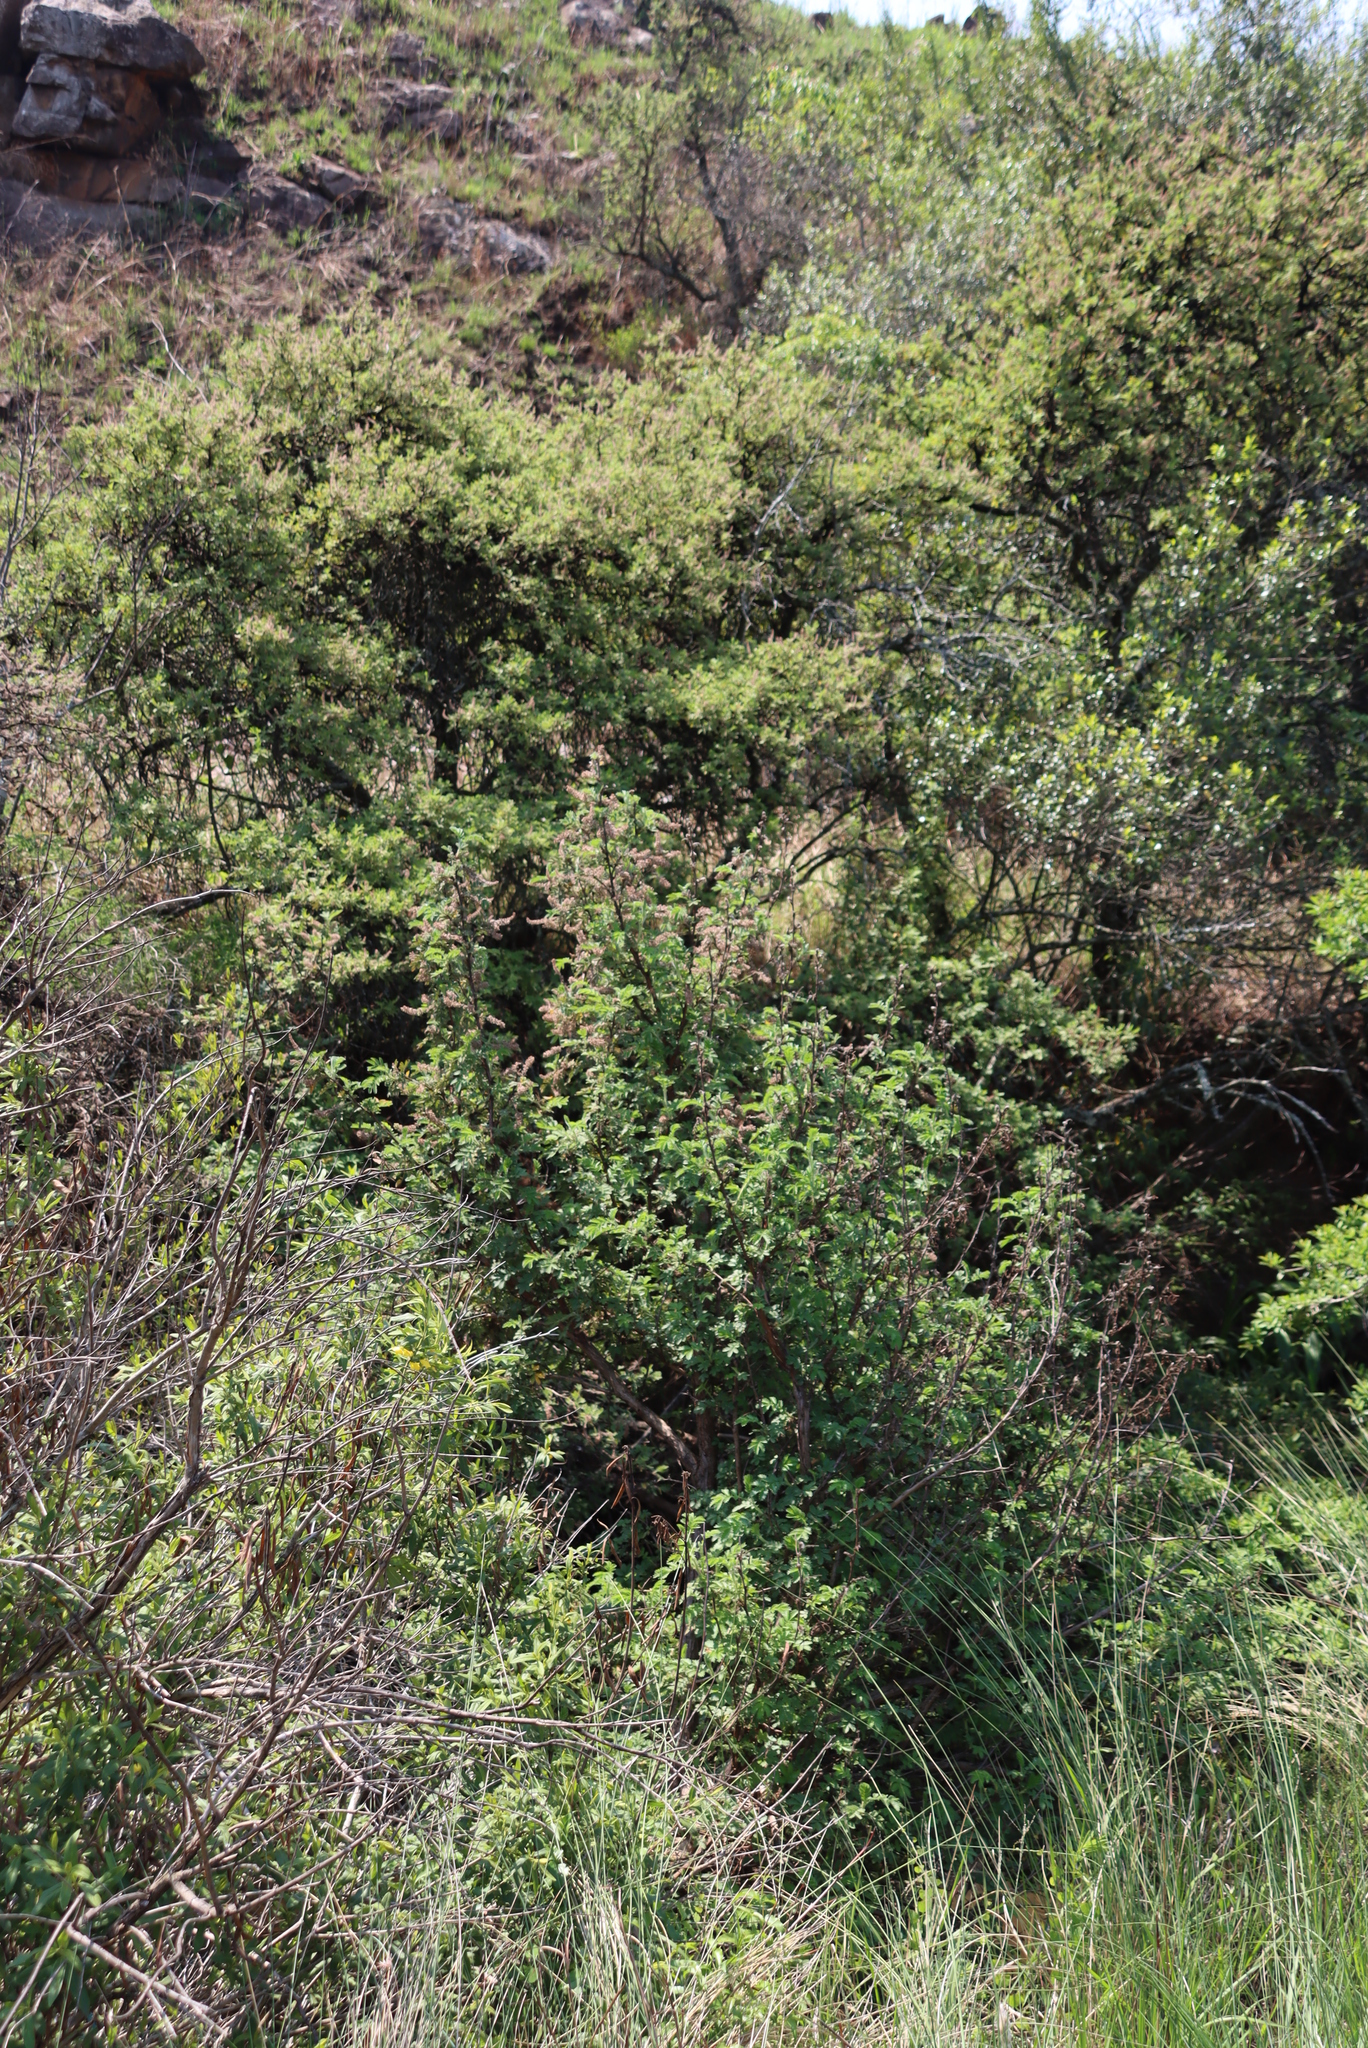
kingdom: Plantae
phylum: Tracheophyta
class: Magnoliopsida
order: Rosales
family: Rosaceae
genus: Leucosidea
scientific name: Leucosidea sericea
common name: Oldwood
